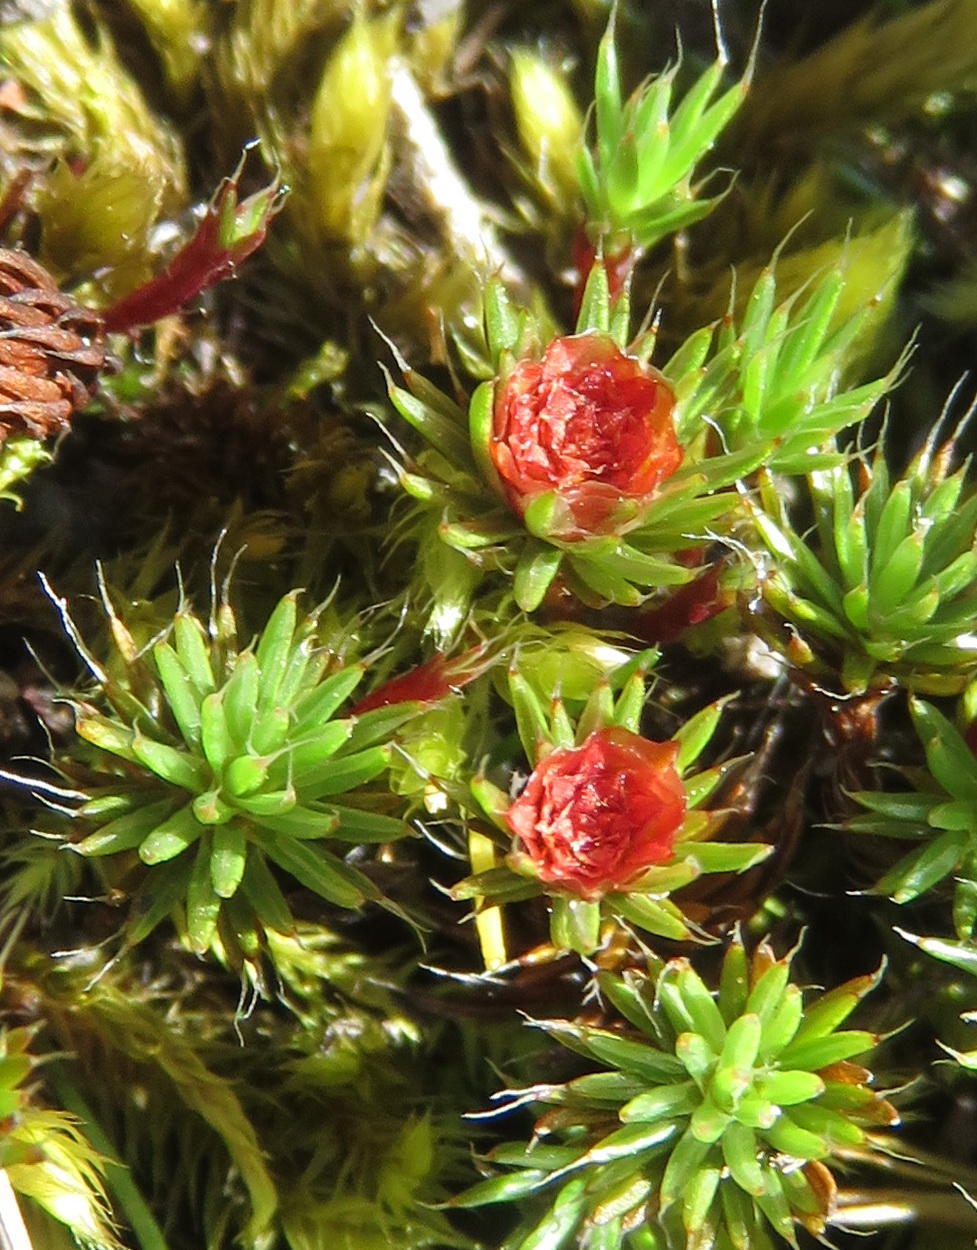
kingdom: Plantae
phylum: Bryophyta
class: Polytrichopsida
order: Polytrichales
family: Polytrichaceae
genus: Polytrichum
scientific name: Polytrichum piliferum
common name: Bristly haircap
